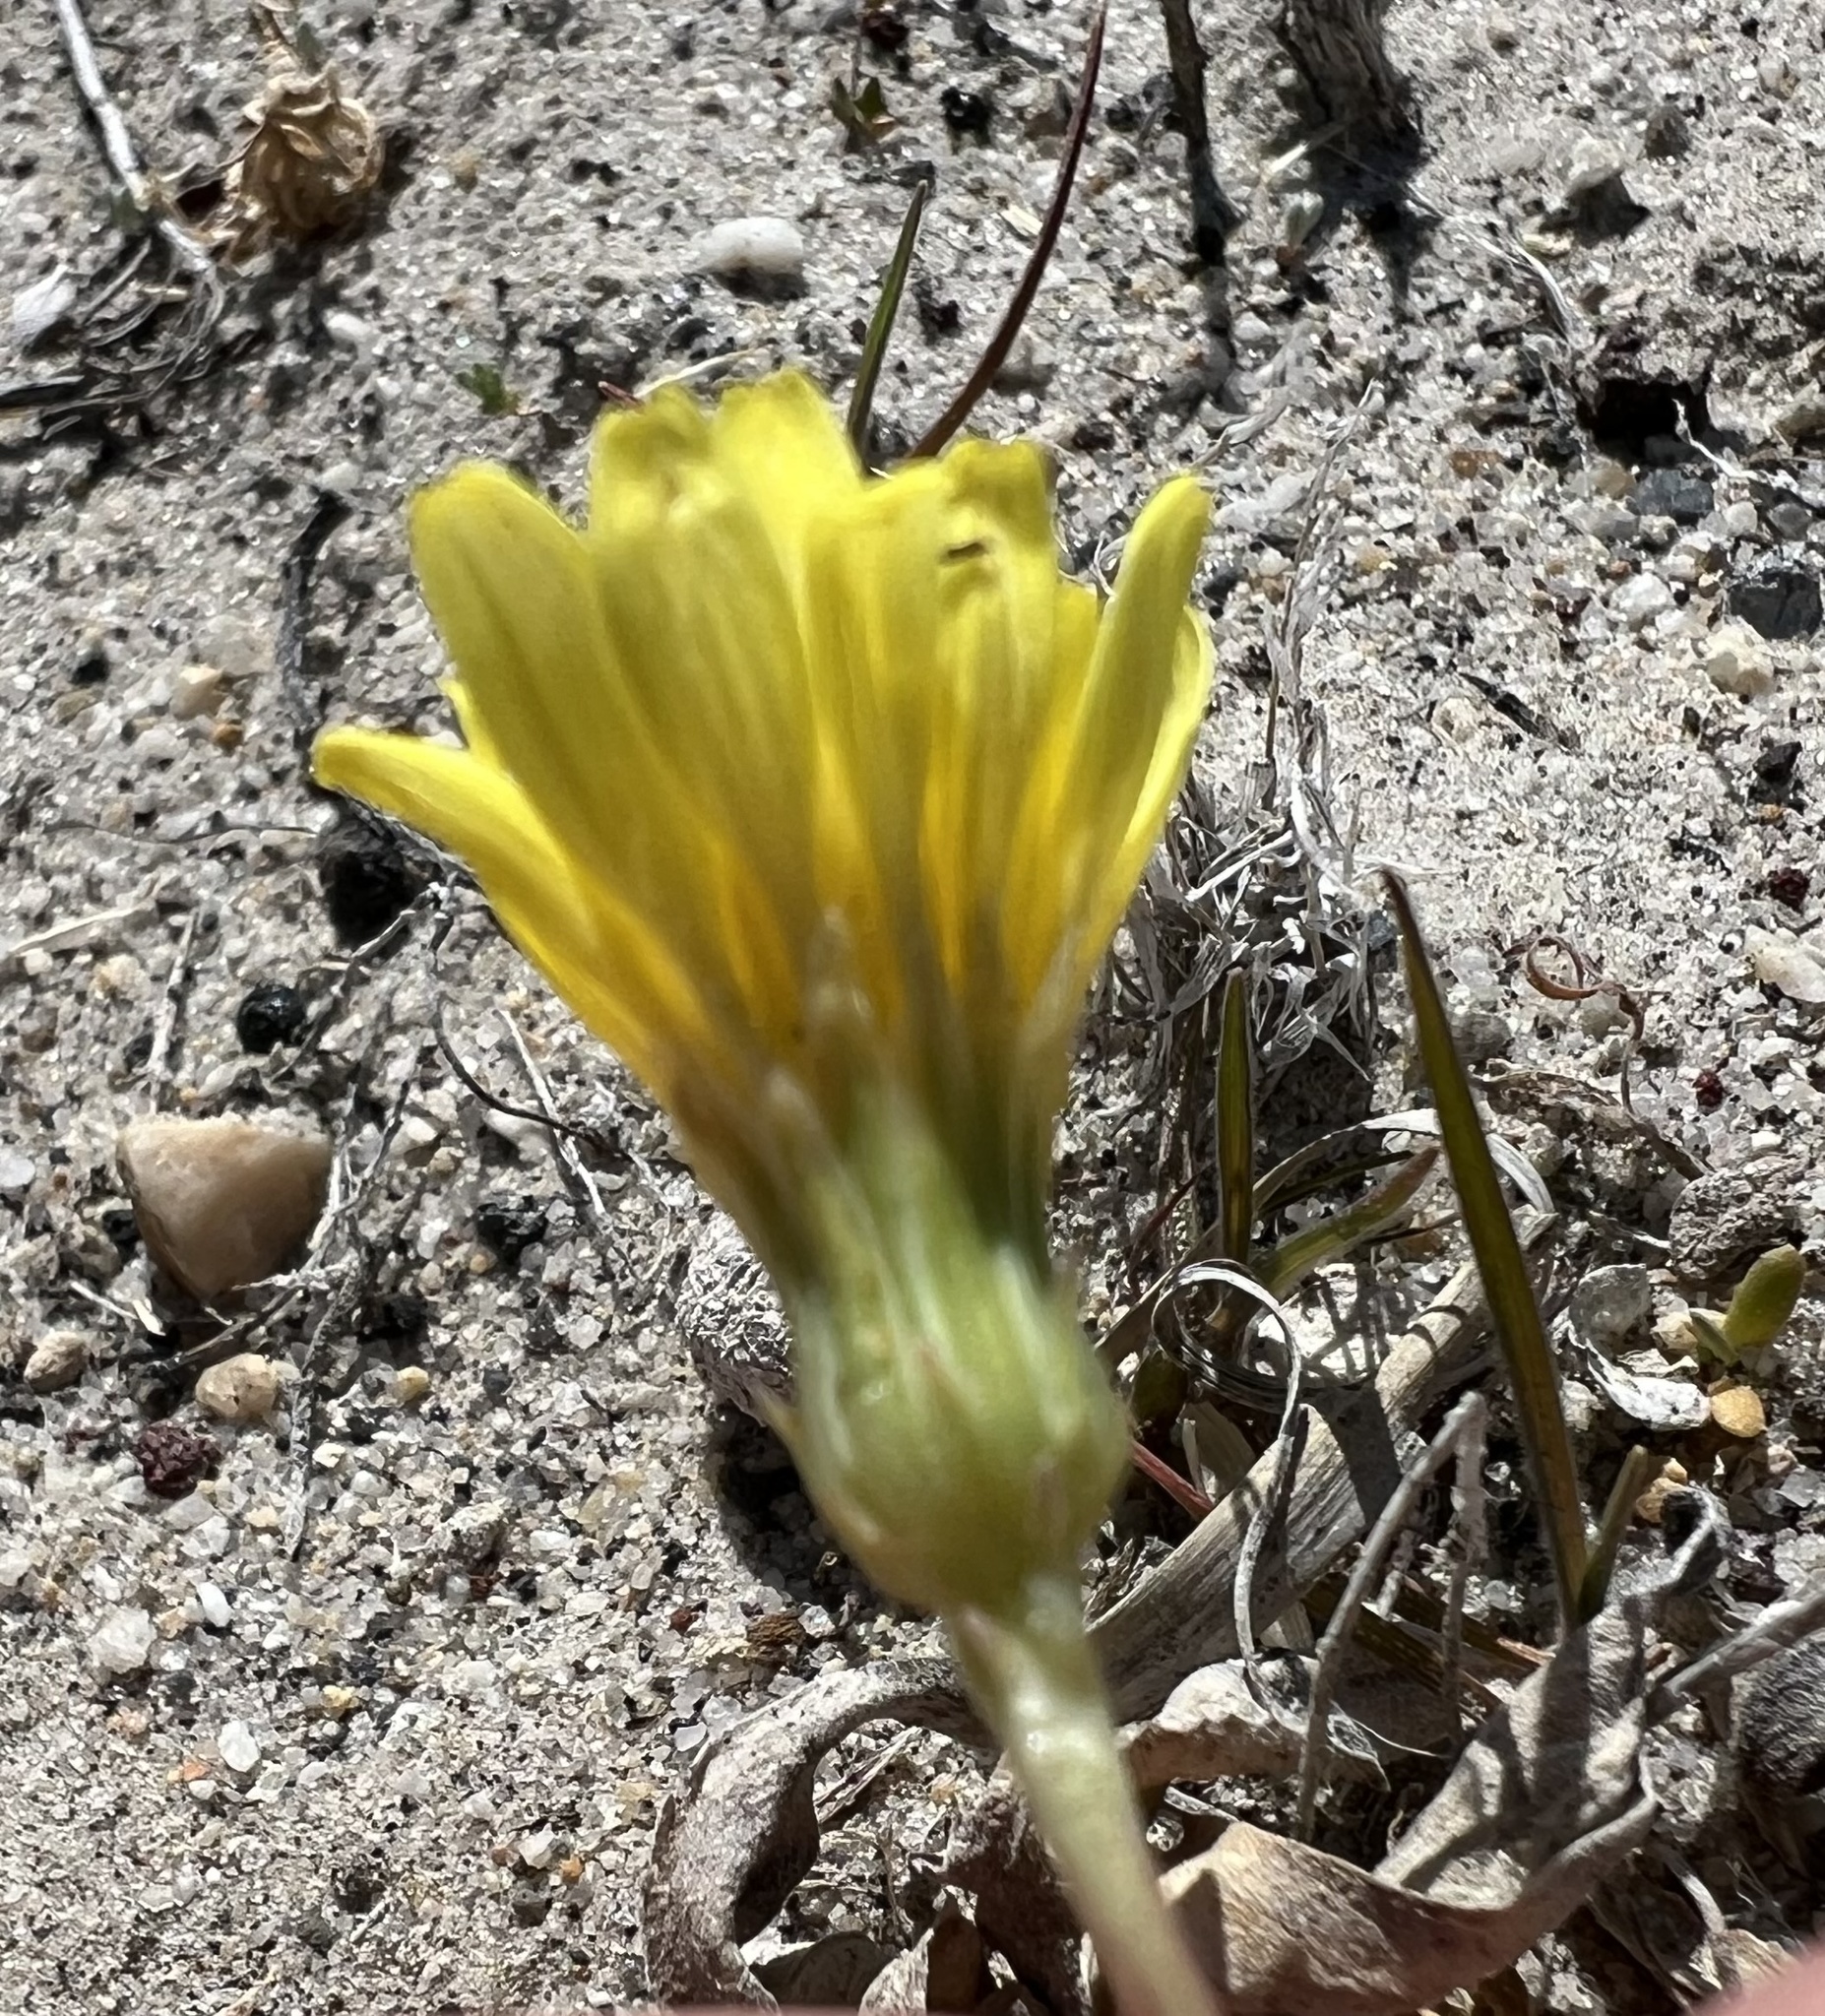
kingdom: Plantae
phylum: Tracheophyta
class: Magnoliopsida
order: Asterales
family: Asteraceae
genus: Malacothrix
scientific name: Malacothrix glabrata
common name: Smooth desert-dandelion
